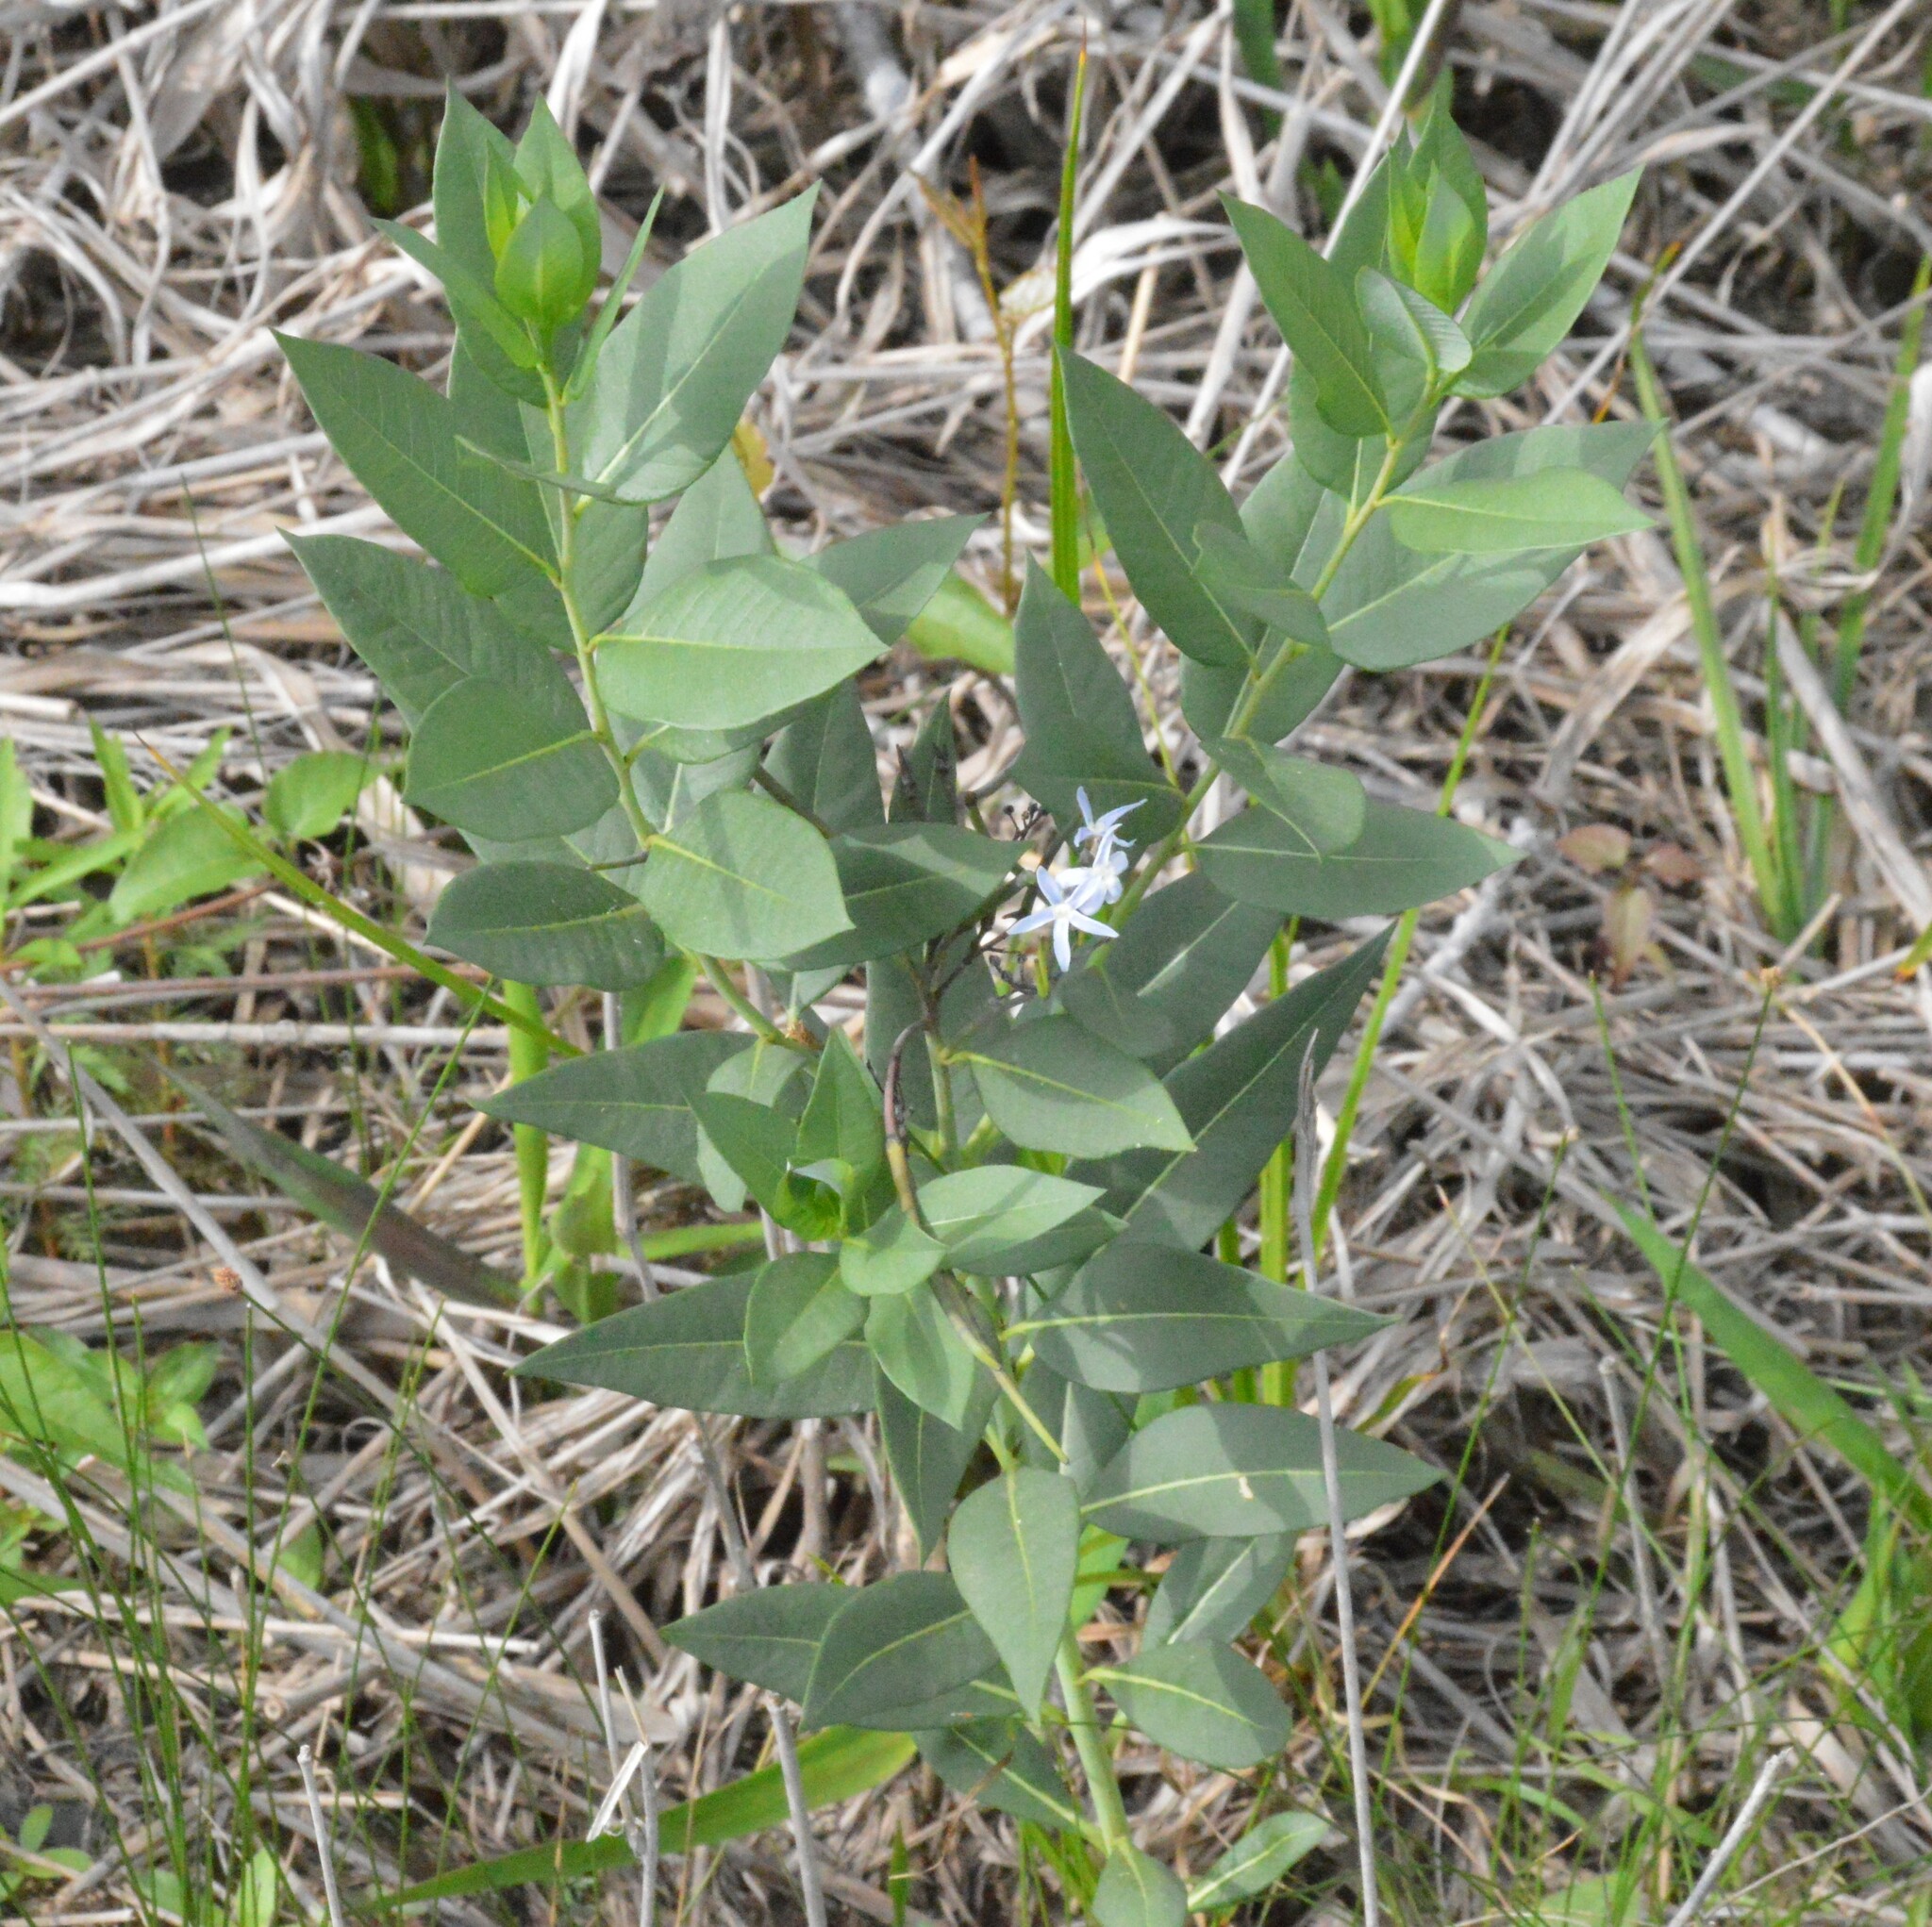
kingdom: Plantae
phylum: Tracheophyta
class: Magnoliopsida
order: Gentianales
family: Apocynaceae
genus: Amsonia
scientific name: Amsonia tabernaemontana
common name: Texas-star
